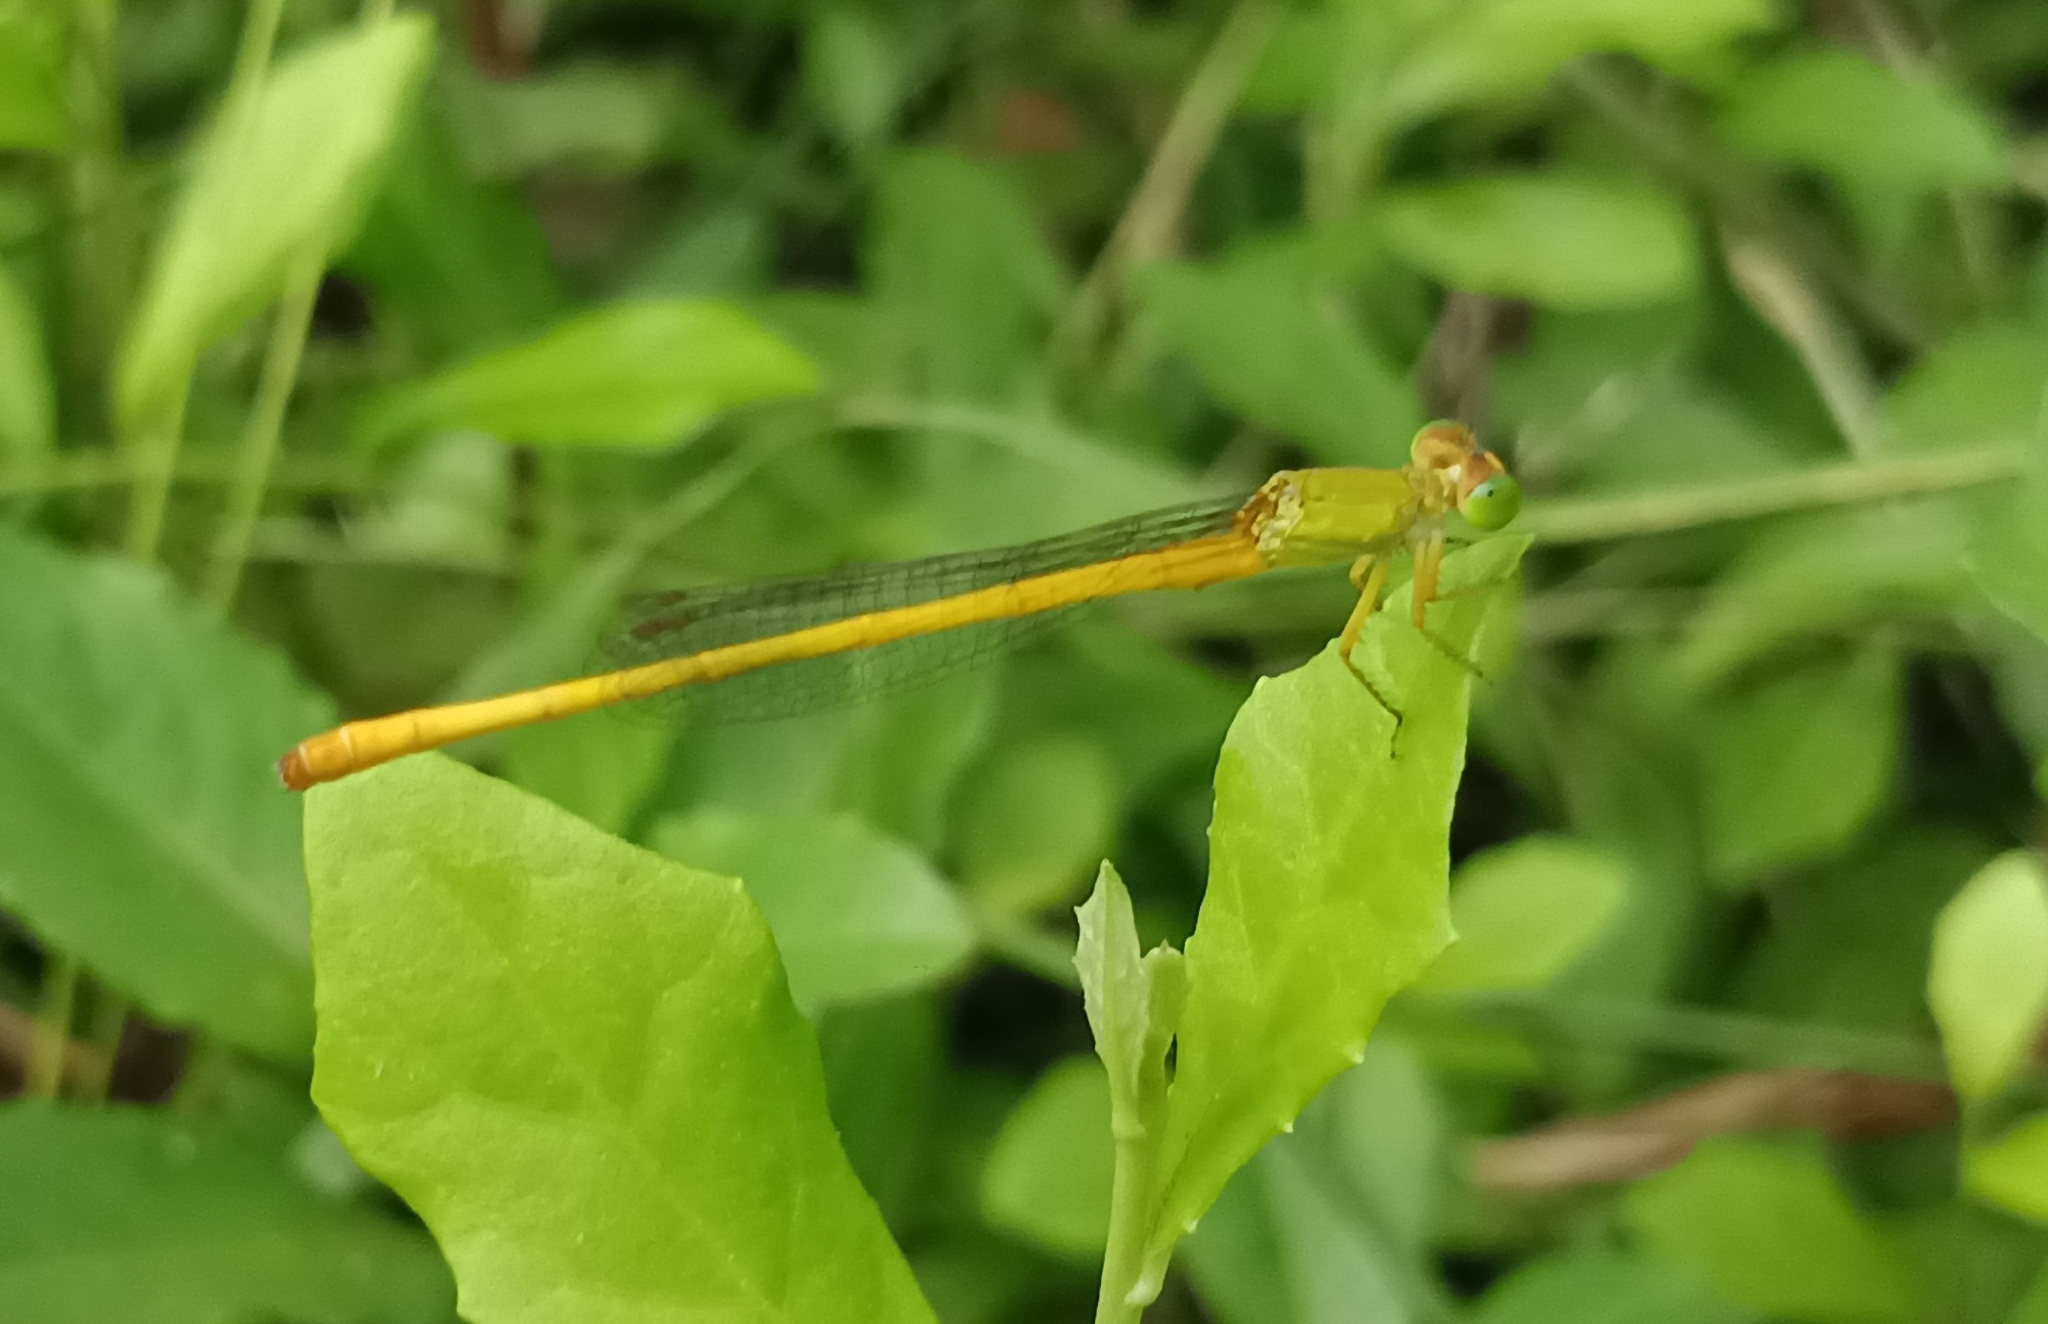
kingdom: Animalia
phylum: Arthropoda
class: Insecta
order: Odonata
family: Coenagrionidae
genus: Ceriagrion
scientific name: Ceriagrion coromandelianum
